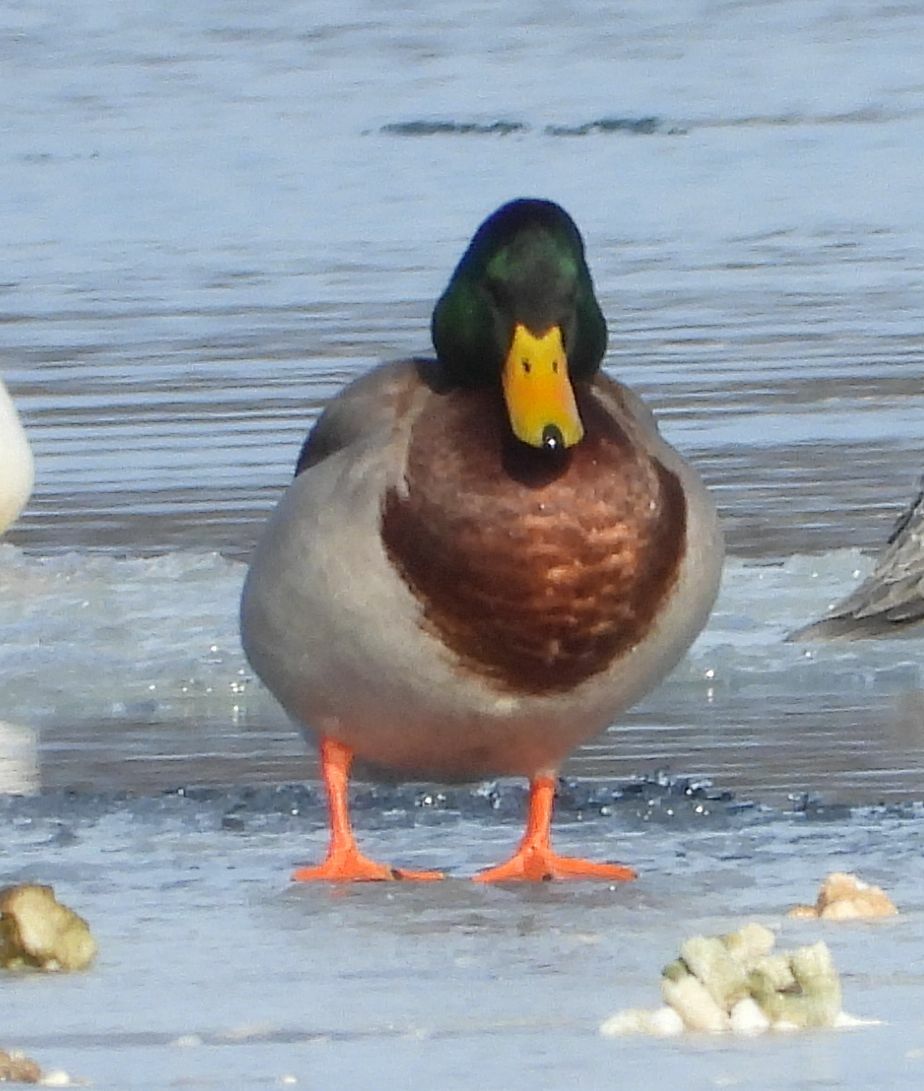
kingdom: Animalia
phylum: Chordata
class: Aves
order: Anseriformes
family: Anatidae
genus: Anas
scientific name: Anas platyrhynchos
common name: Mallard
